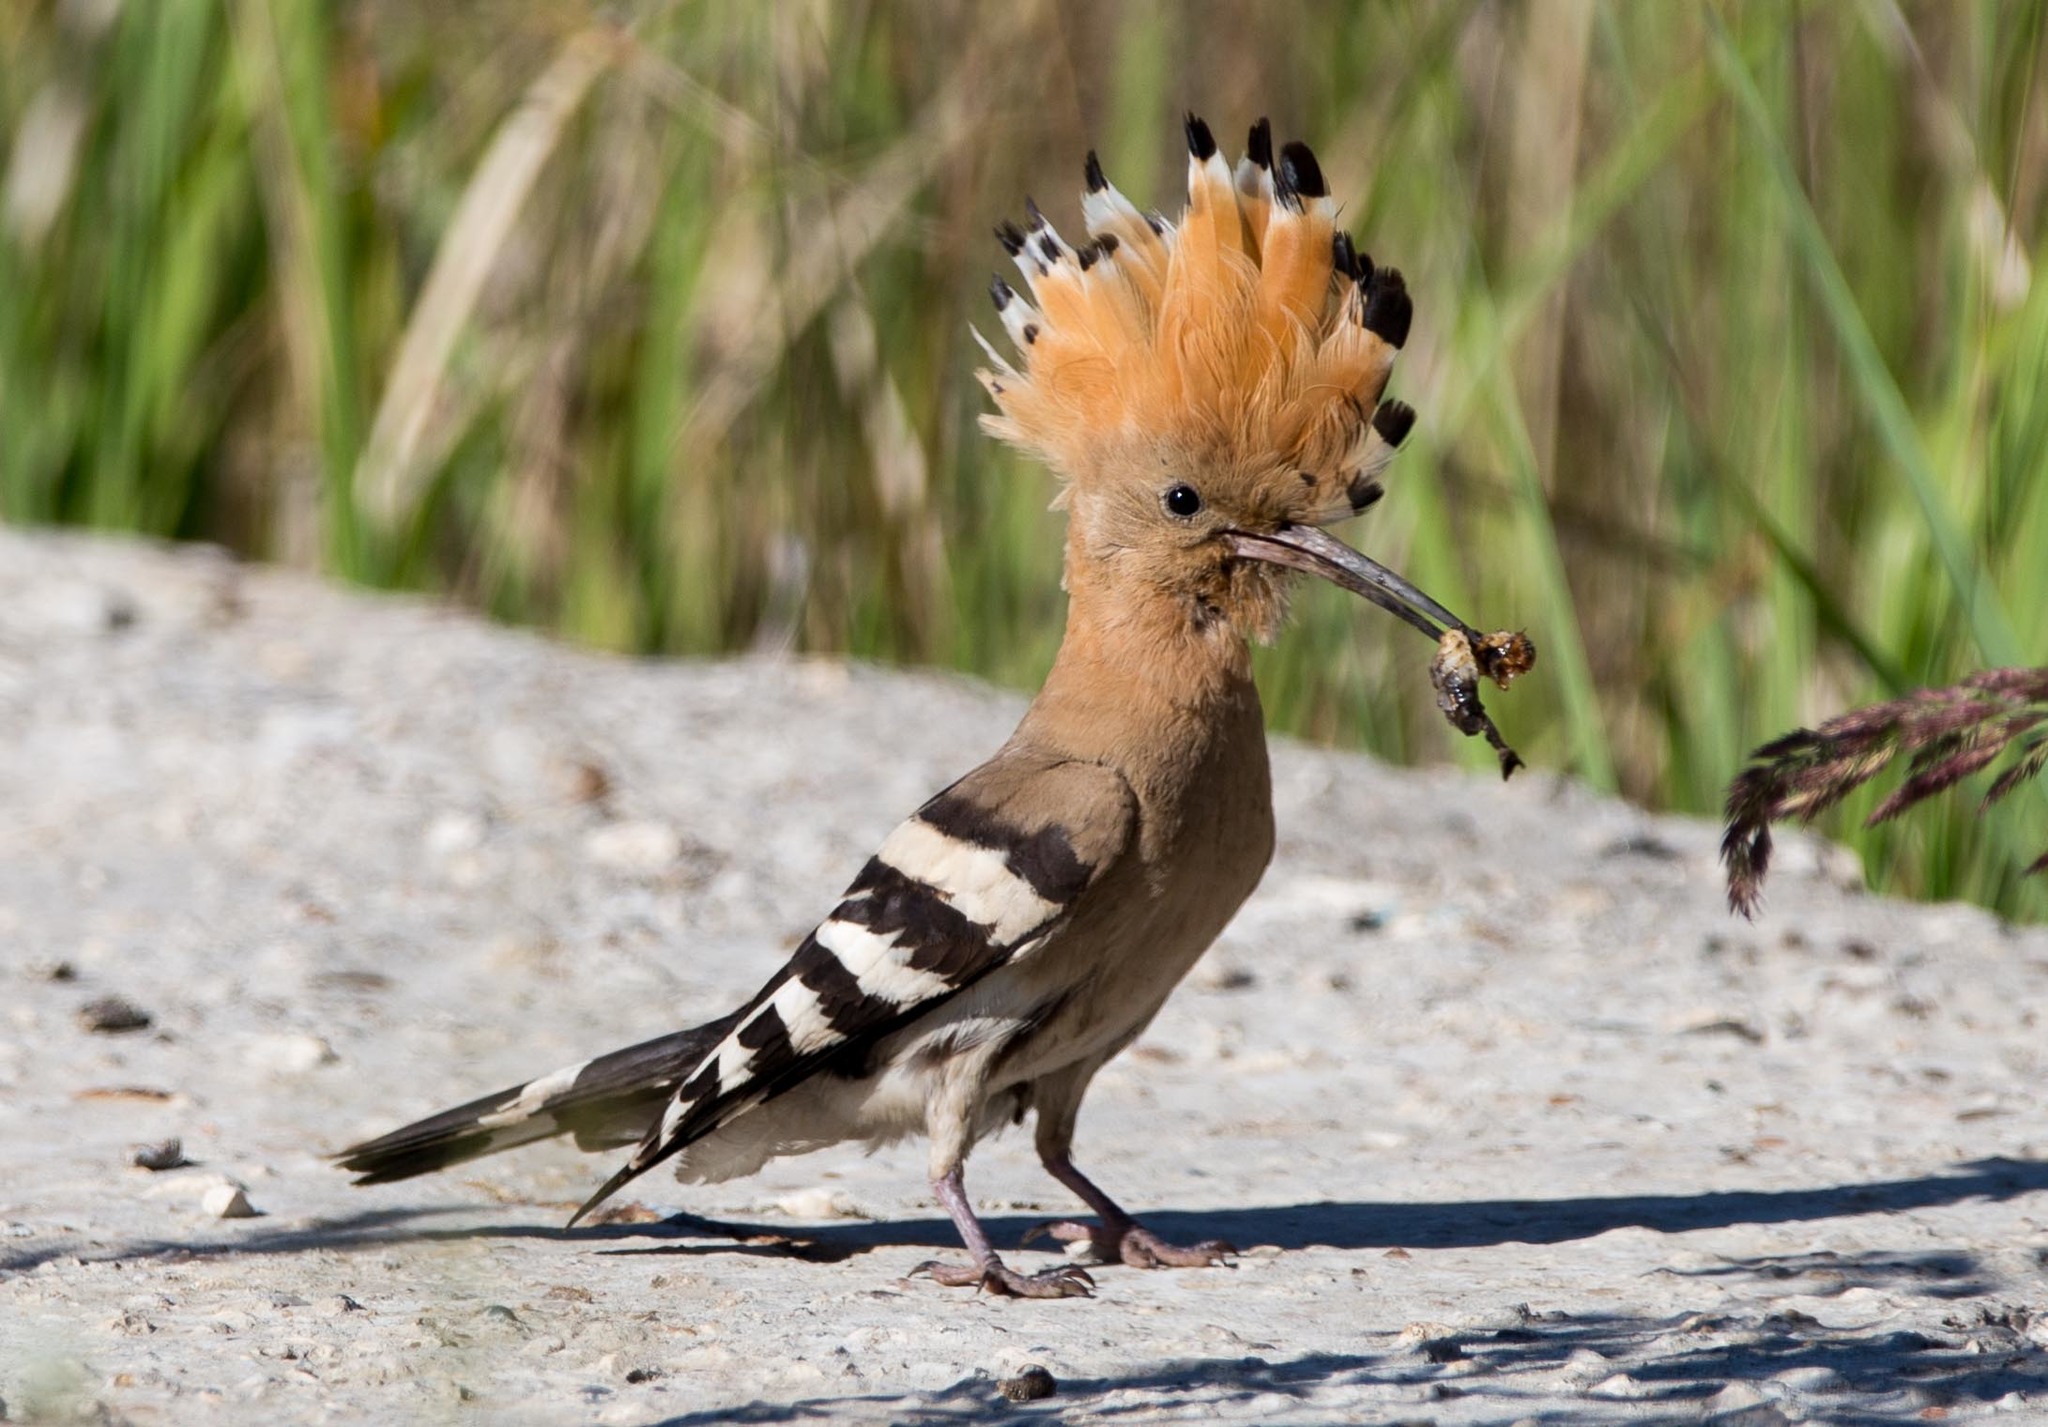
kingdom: Animalia
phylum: Chordata
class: Aves
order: Bucerotiformes
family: Upupidae
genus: Upupa
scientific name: Upupa epops
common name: Eurasian hoopoe
